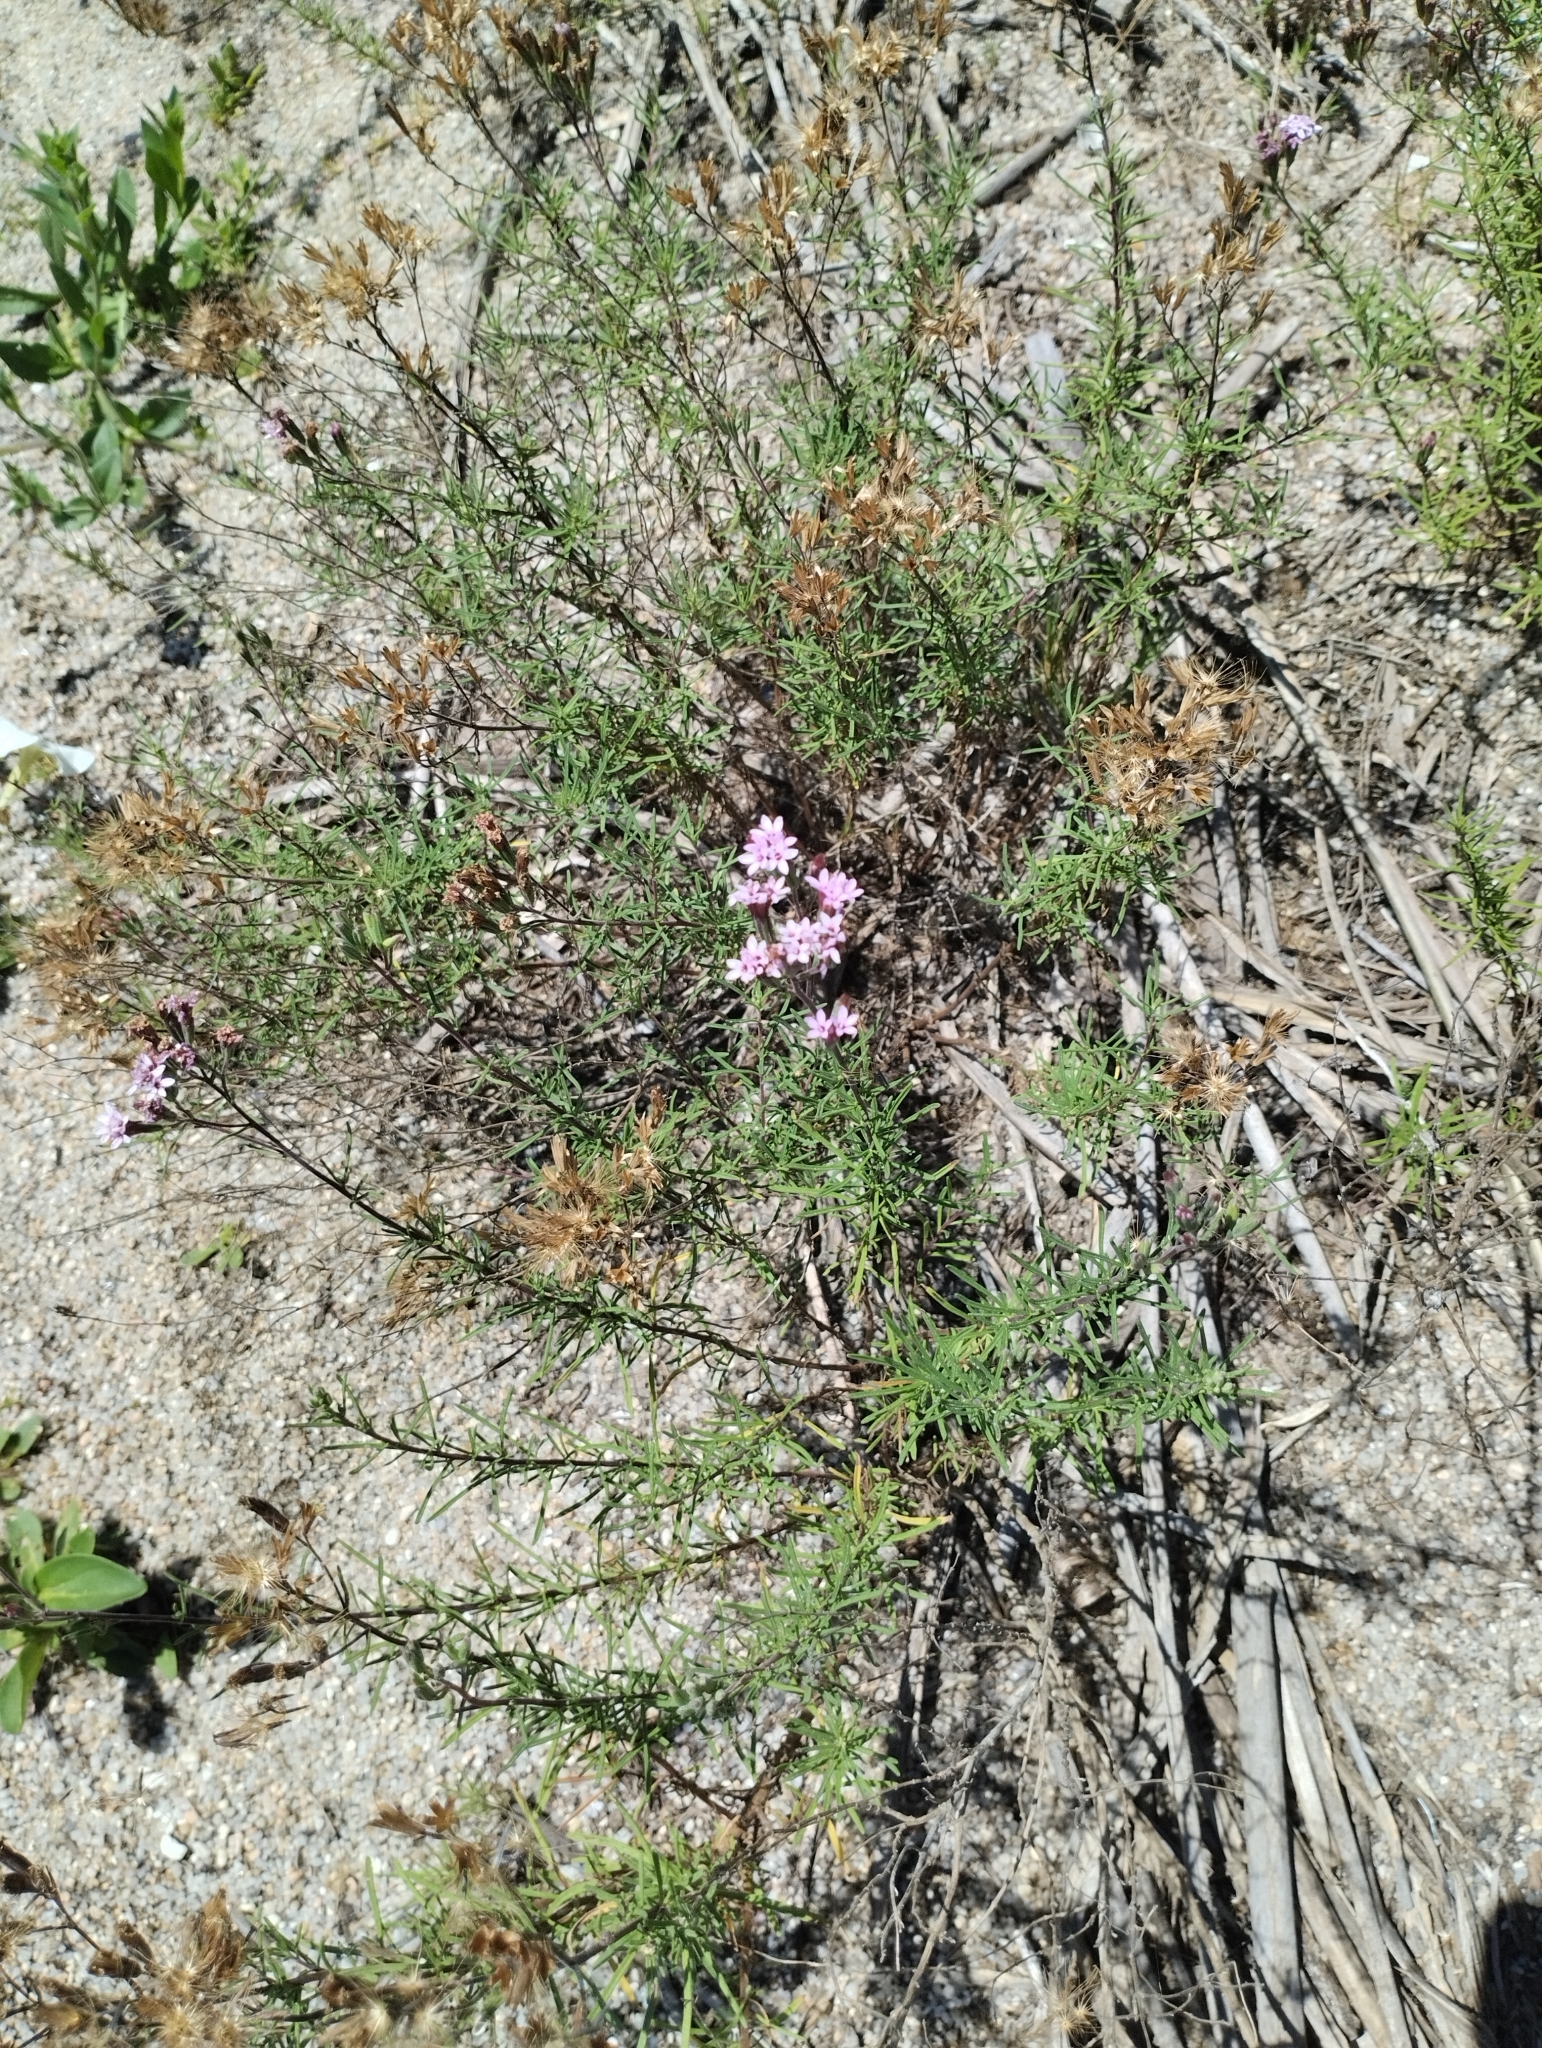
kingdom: Plantae
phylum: Tracheophyta
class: Magnoliopsida
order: Asterales
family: Asteraceae
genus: Stevia
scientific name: Stevia satureifolia
